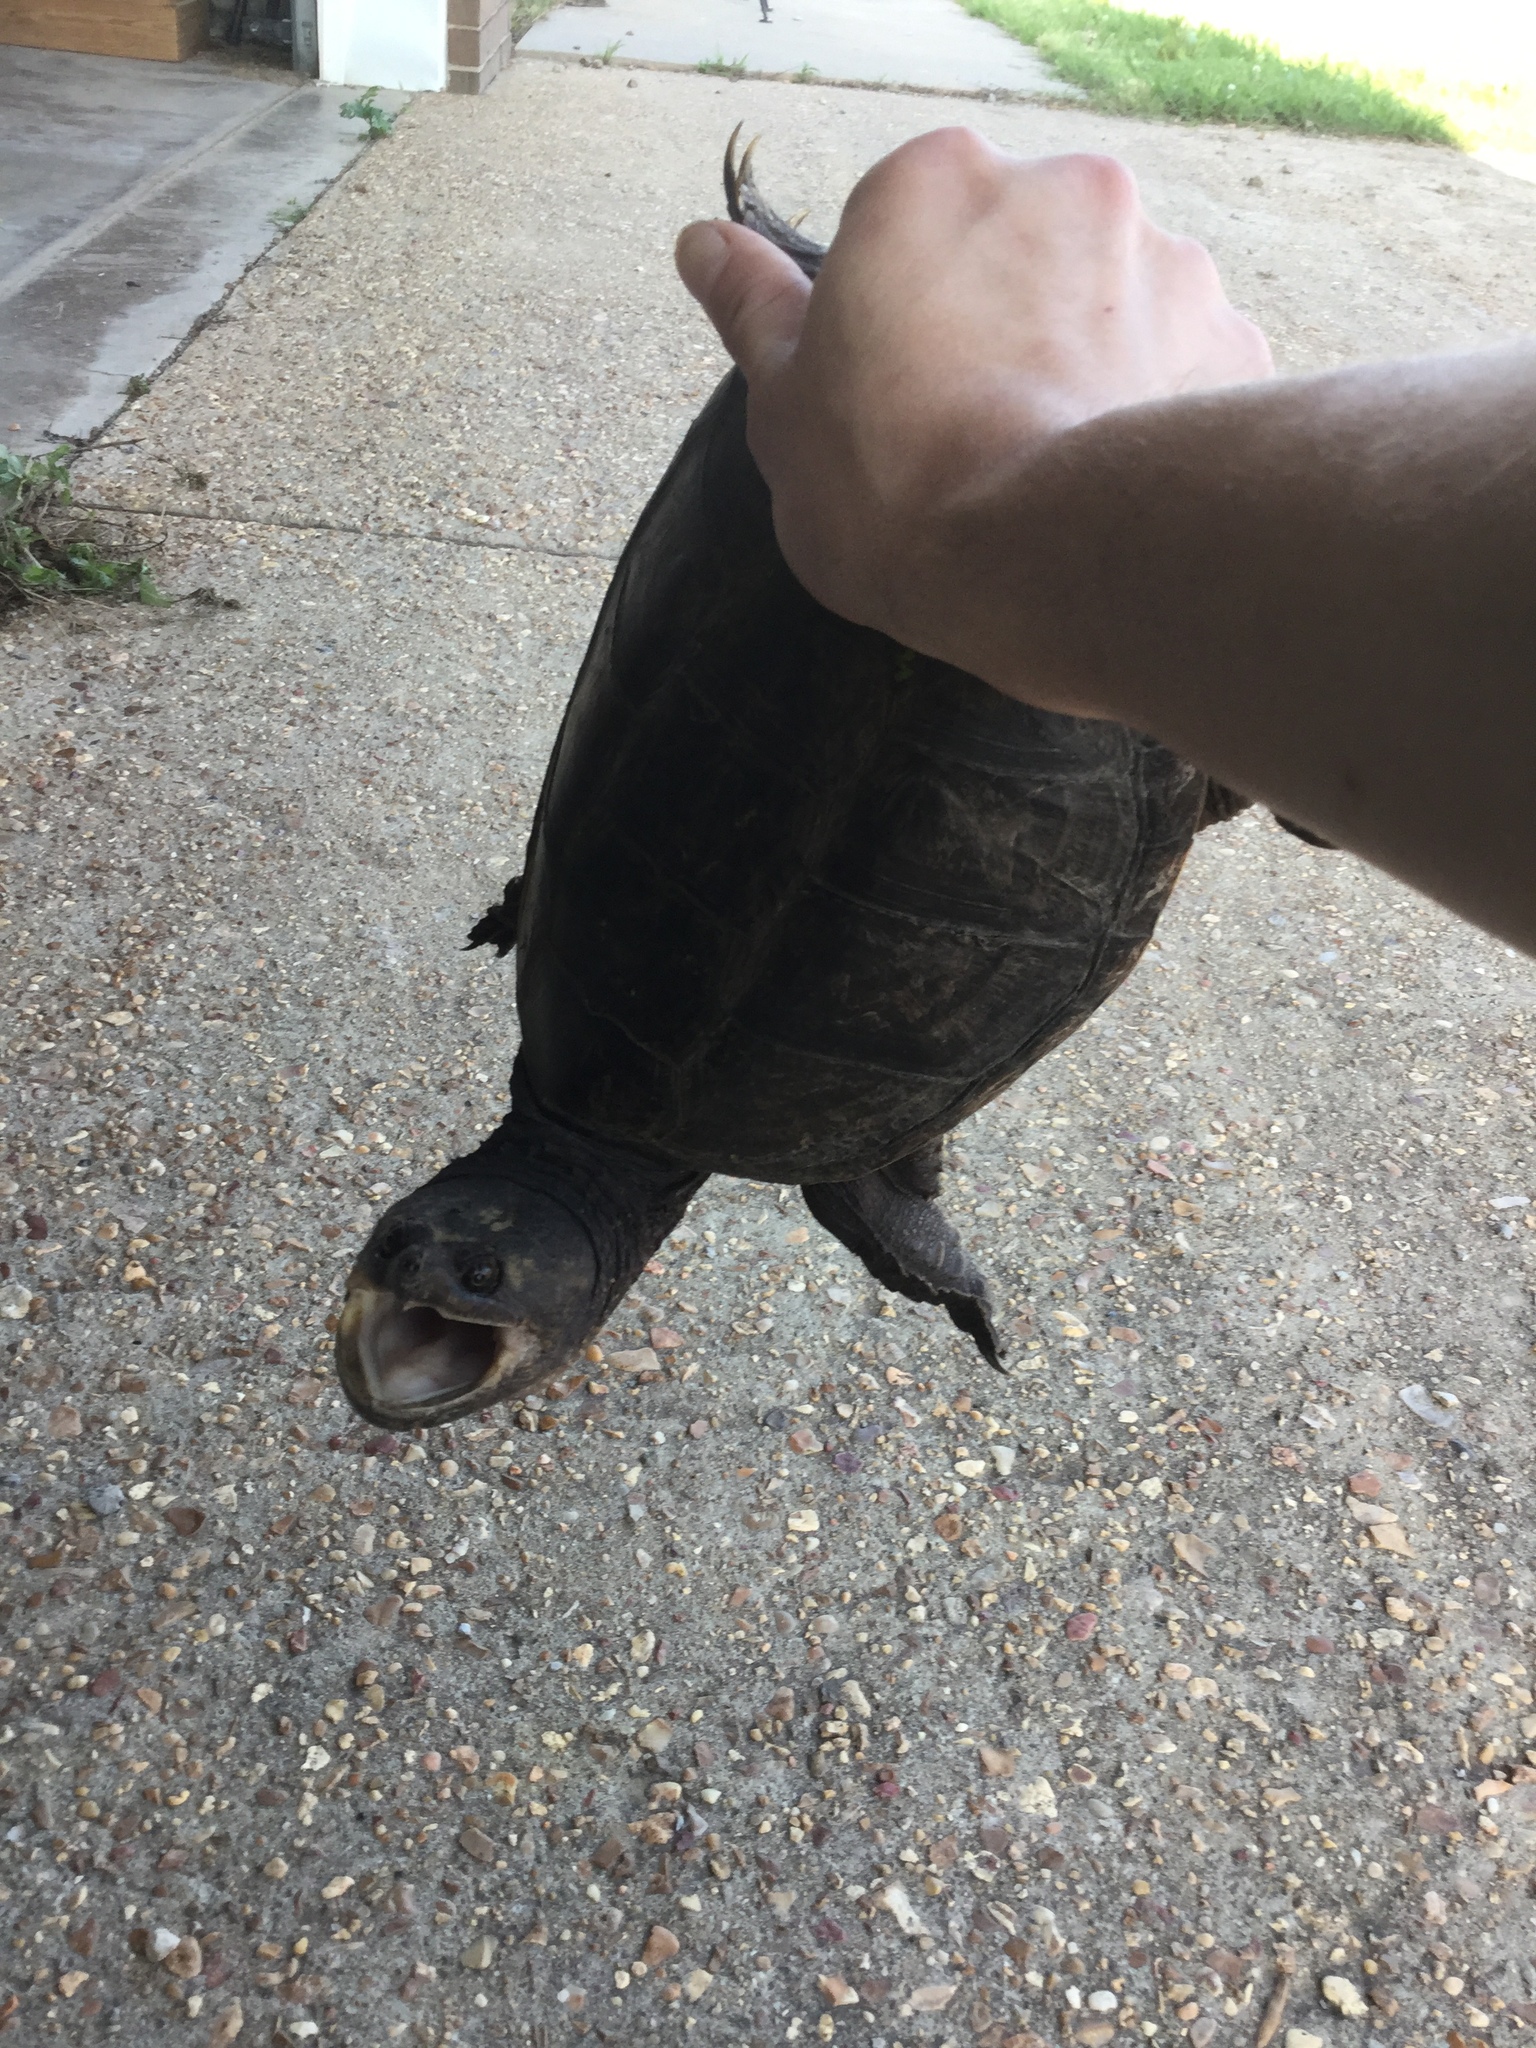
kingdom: Animalia
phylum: Chordata
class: Testudines
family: Chelydridae
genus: Chelydra
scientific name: Chelydra serpentina
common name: Common snapping turtle
